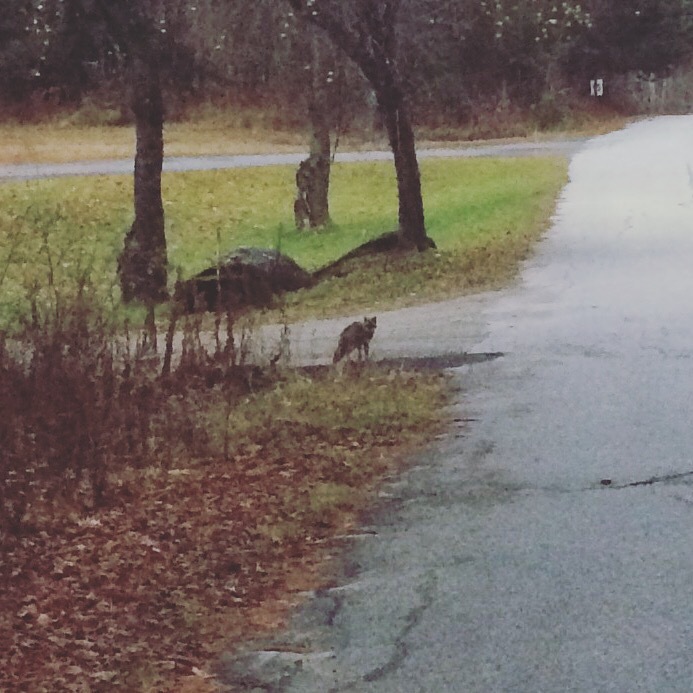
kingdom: Animalia
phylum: Chordata
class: Mammalia
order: Carnivora
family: Canidae
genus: Urocyon
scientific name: Urocyon cinereoargenteus
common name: Gray fox
